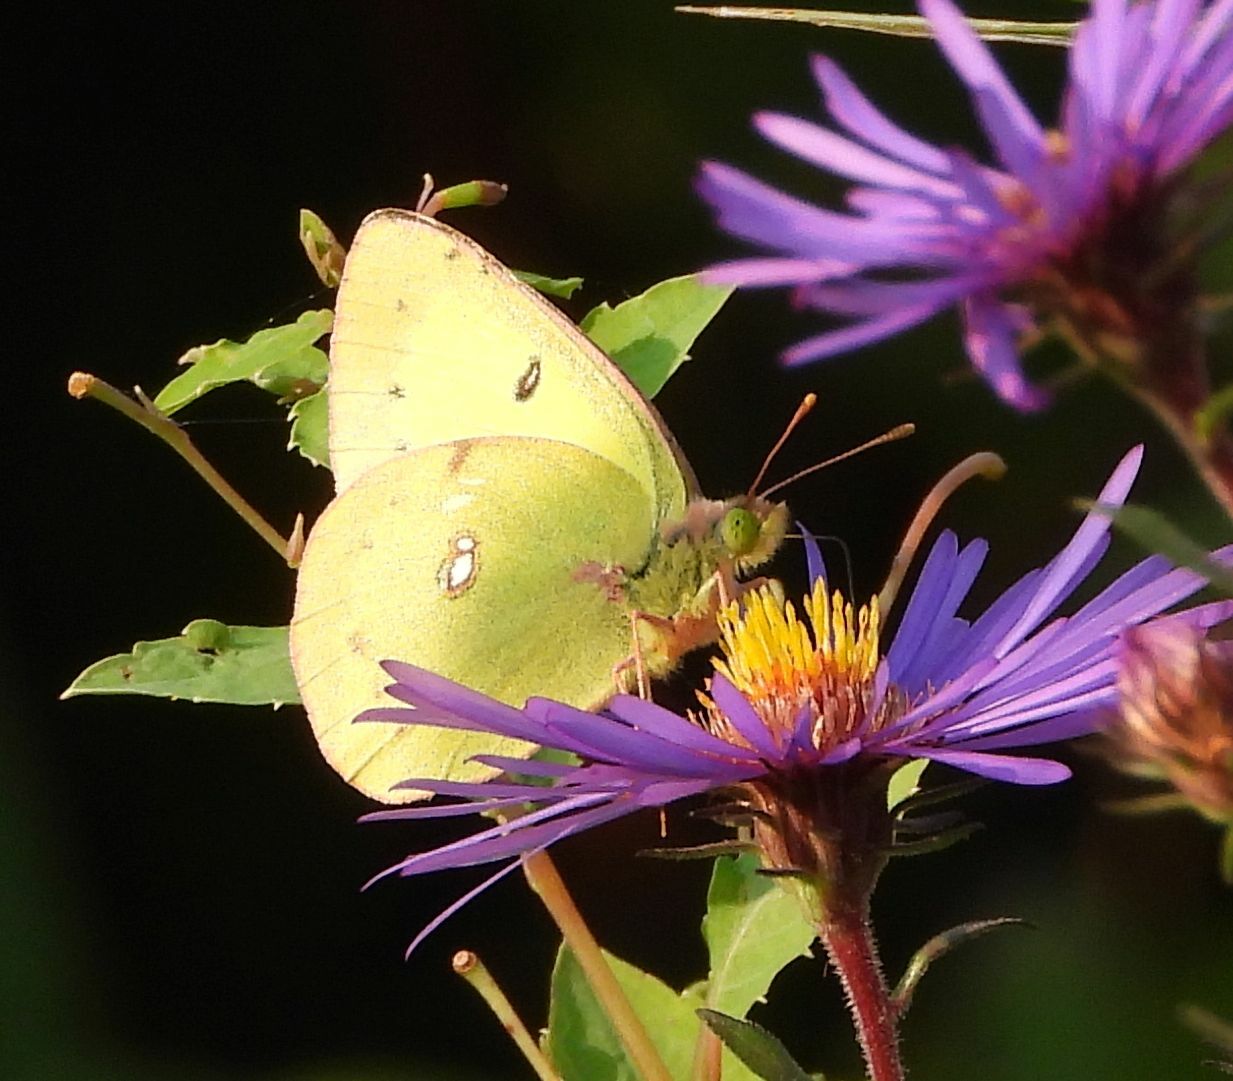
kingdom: Animalia
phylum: Arthropoda
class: Insecta
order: Lepidoptera
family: Pieridae
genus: Colias
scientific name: Colias philodice
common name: Clouded sulphur
